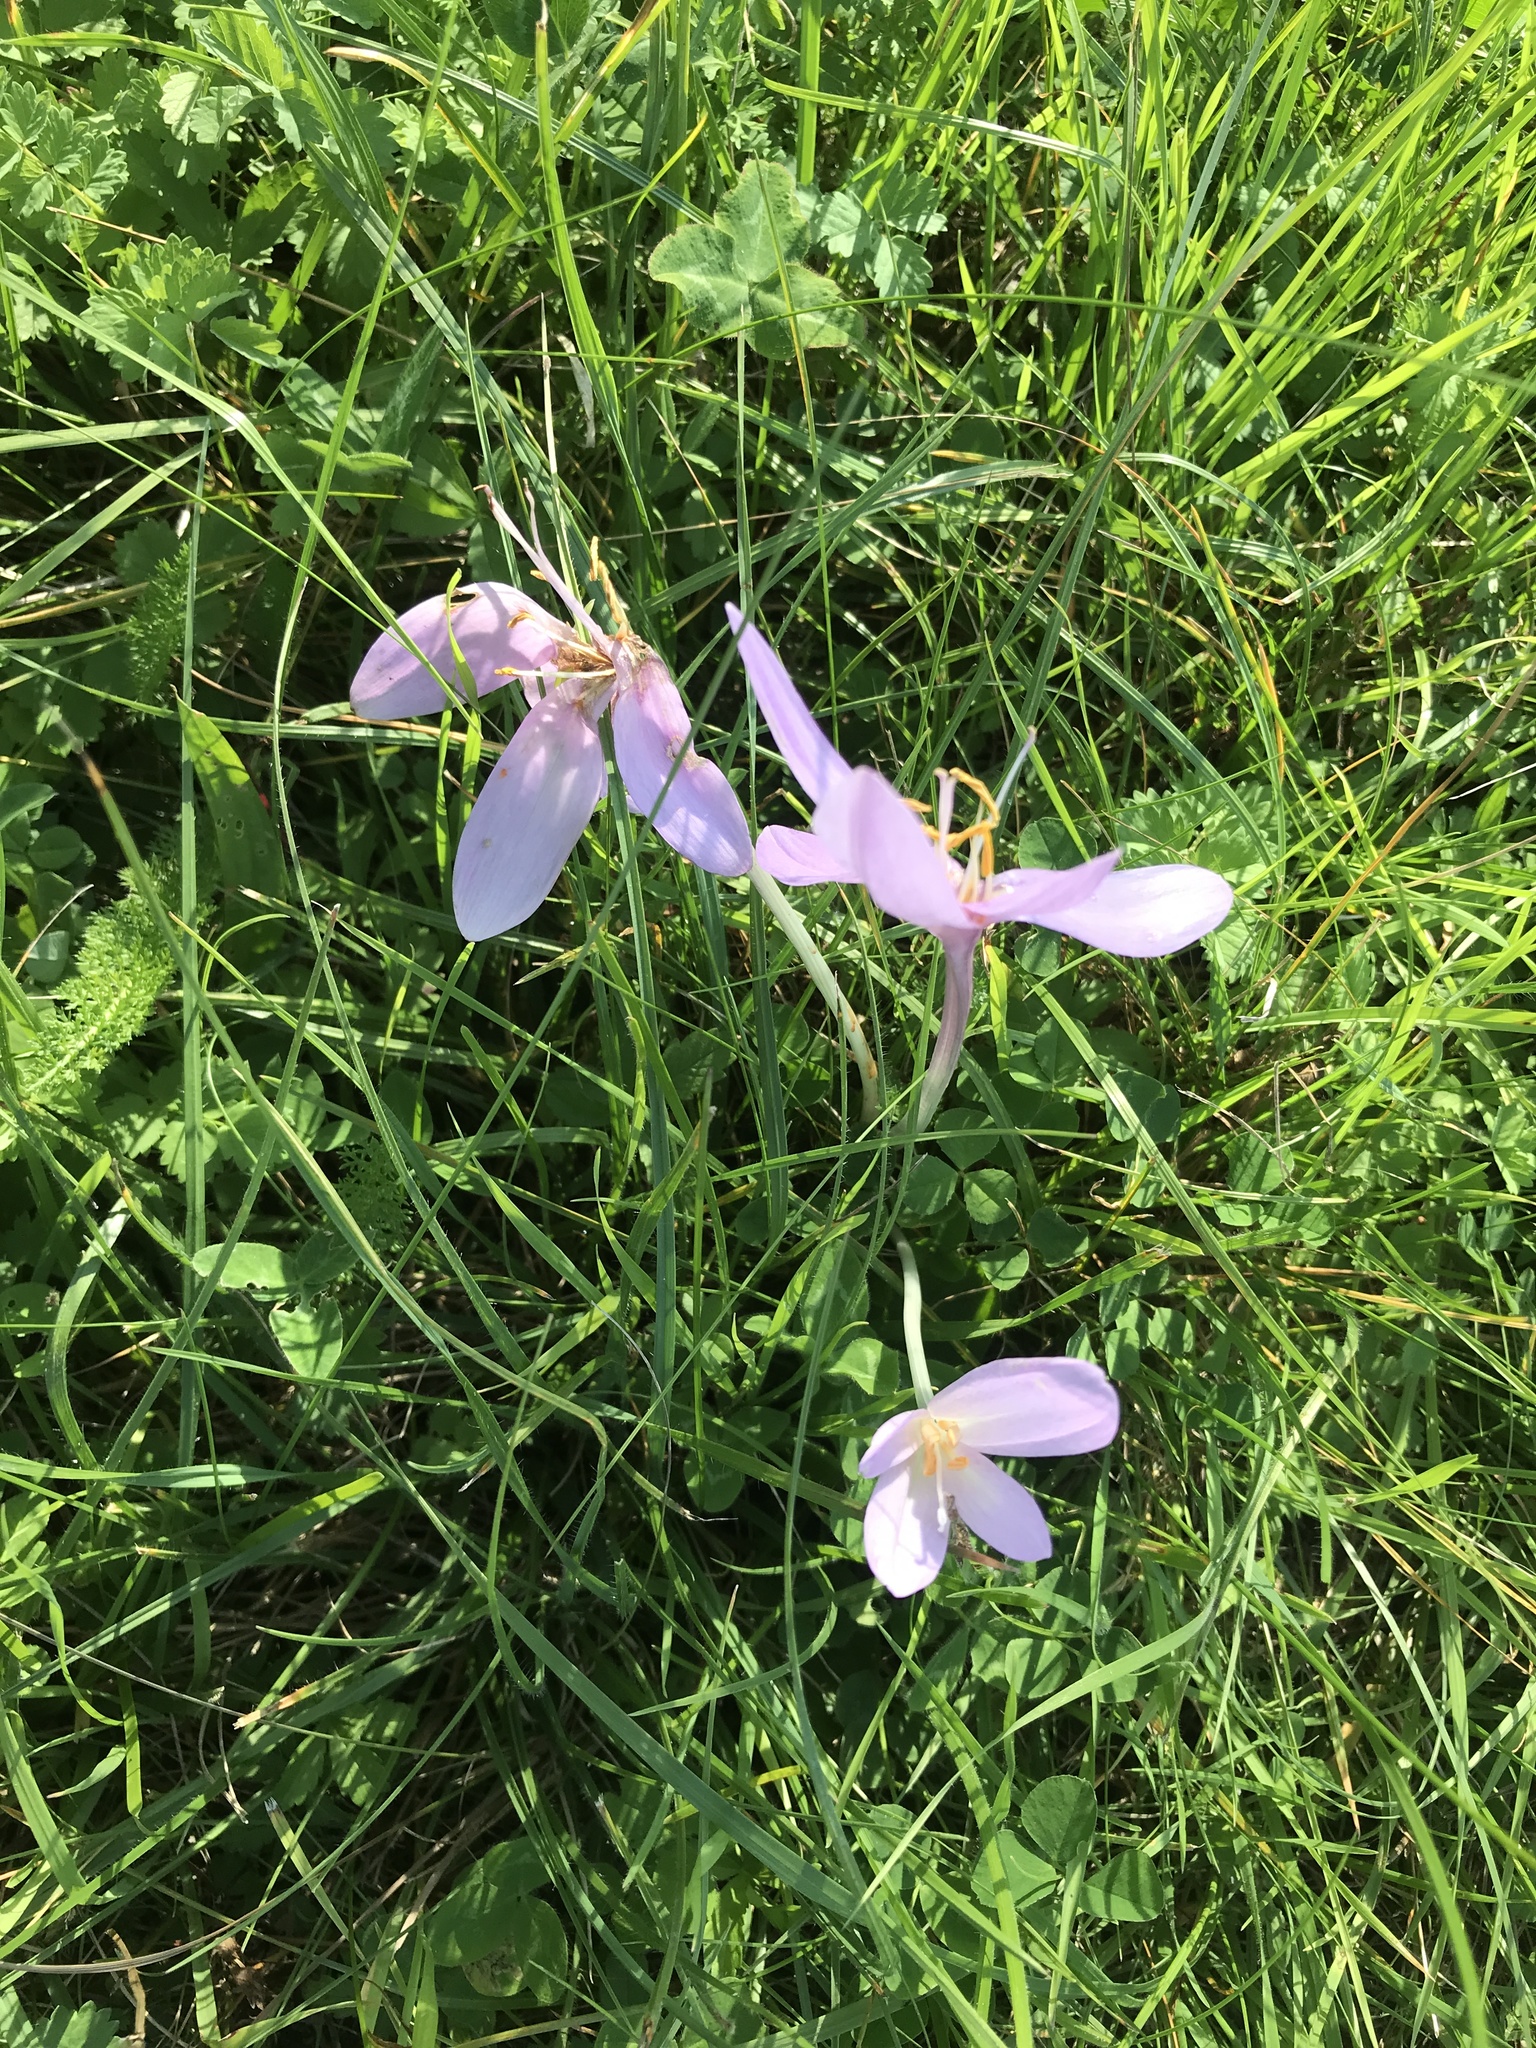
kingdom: Plantae
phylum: Tracheophyta
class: Liliopsida
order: Liliales
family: Colchicaceae
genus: Colchicum
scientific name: Colchicum autumnale
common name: Autumn crocus
